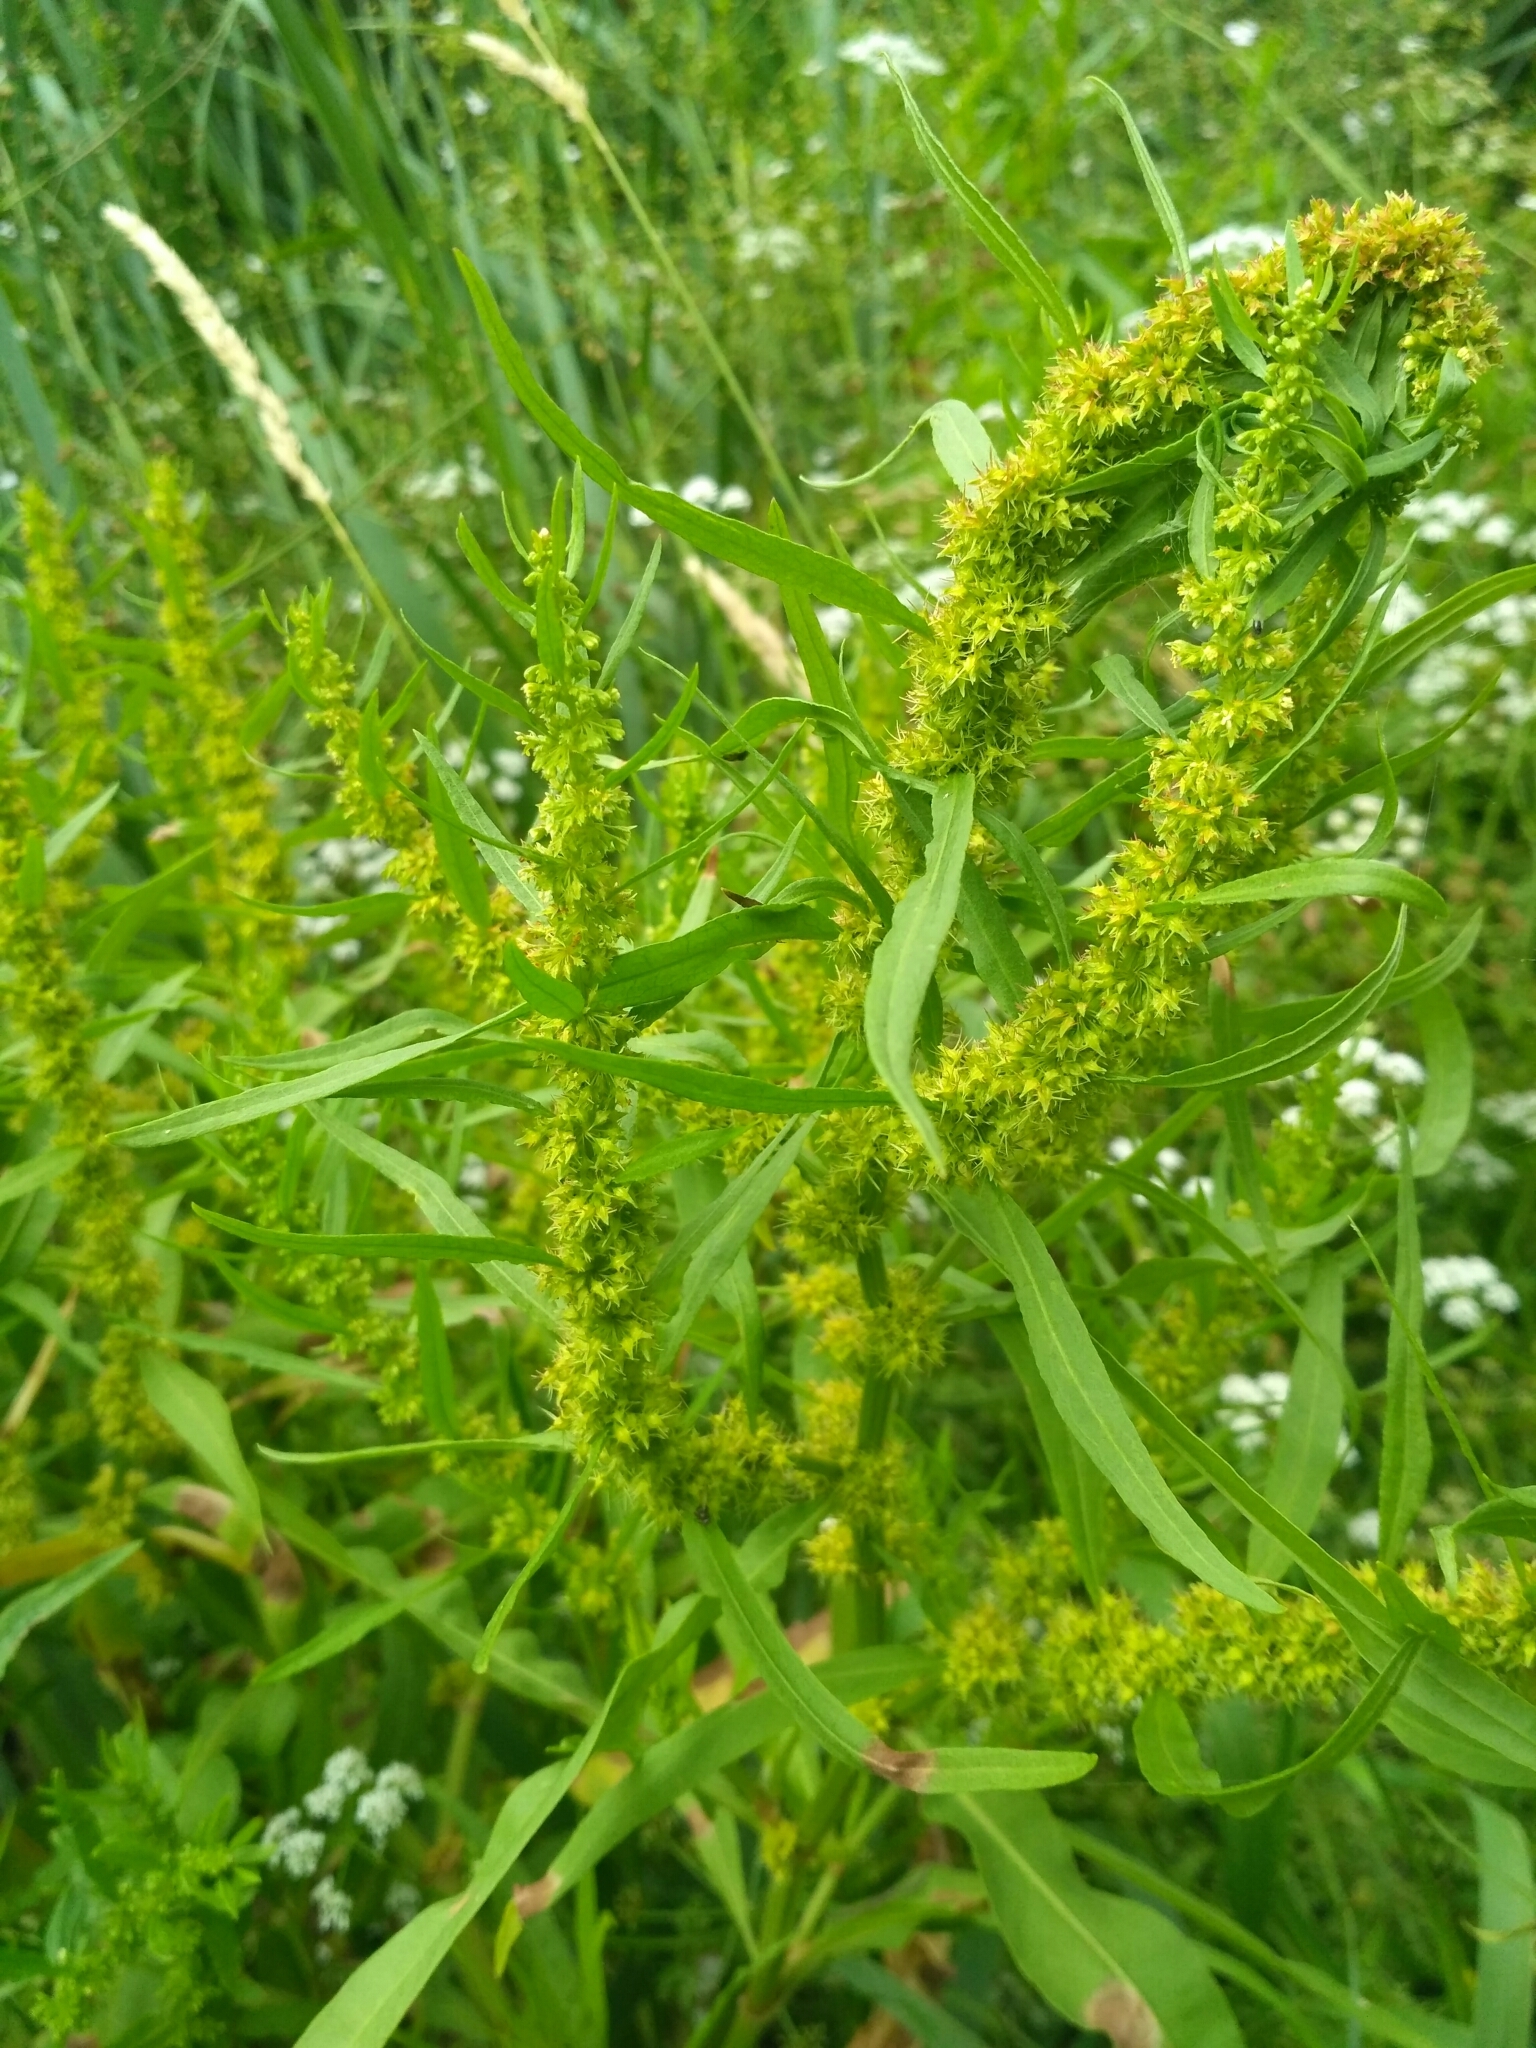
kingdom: Plantae
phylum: Tracheophyta
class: Magnoliopsida
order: Caryophyllales
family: Polygonaceae
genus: Rumex
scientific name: Rumex maritimus
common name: Golden dock
